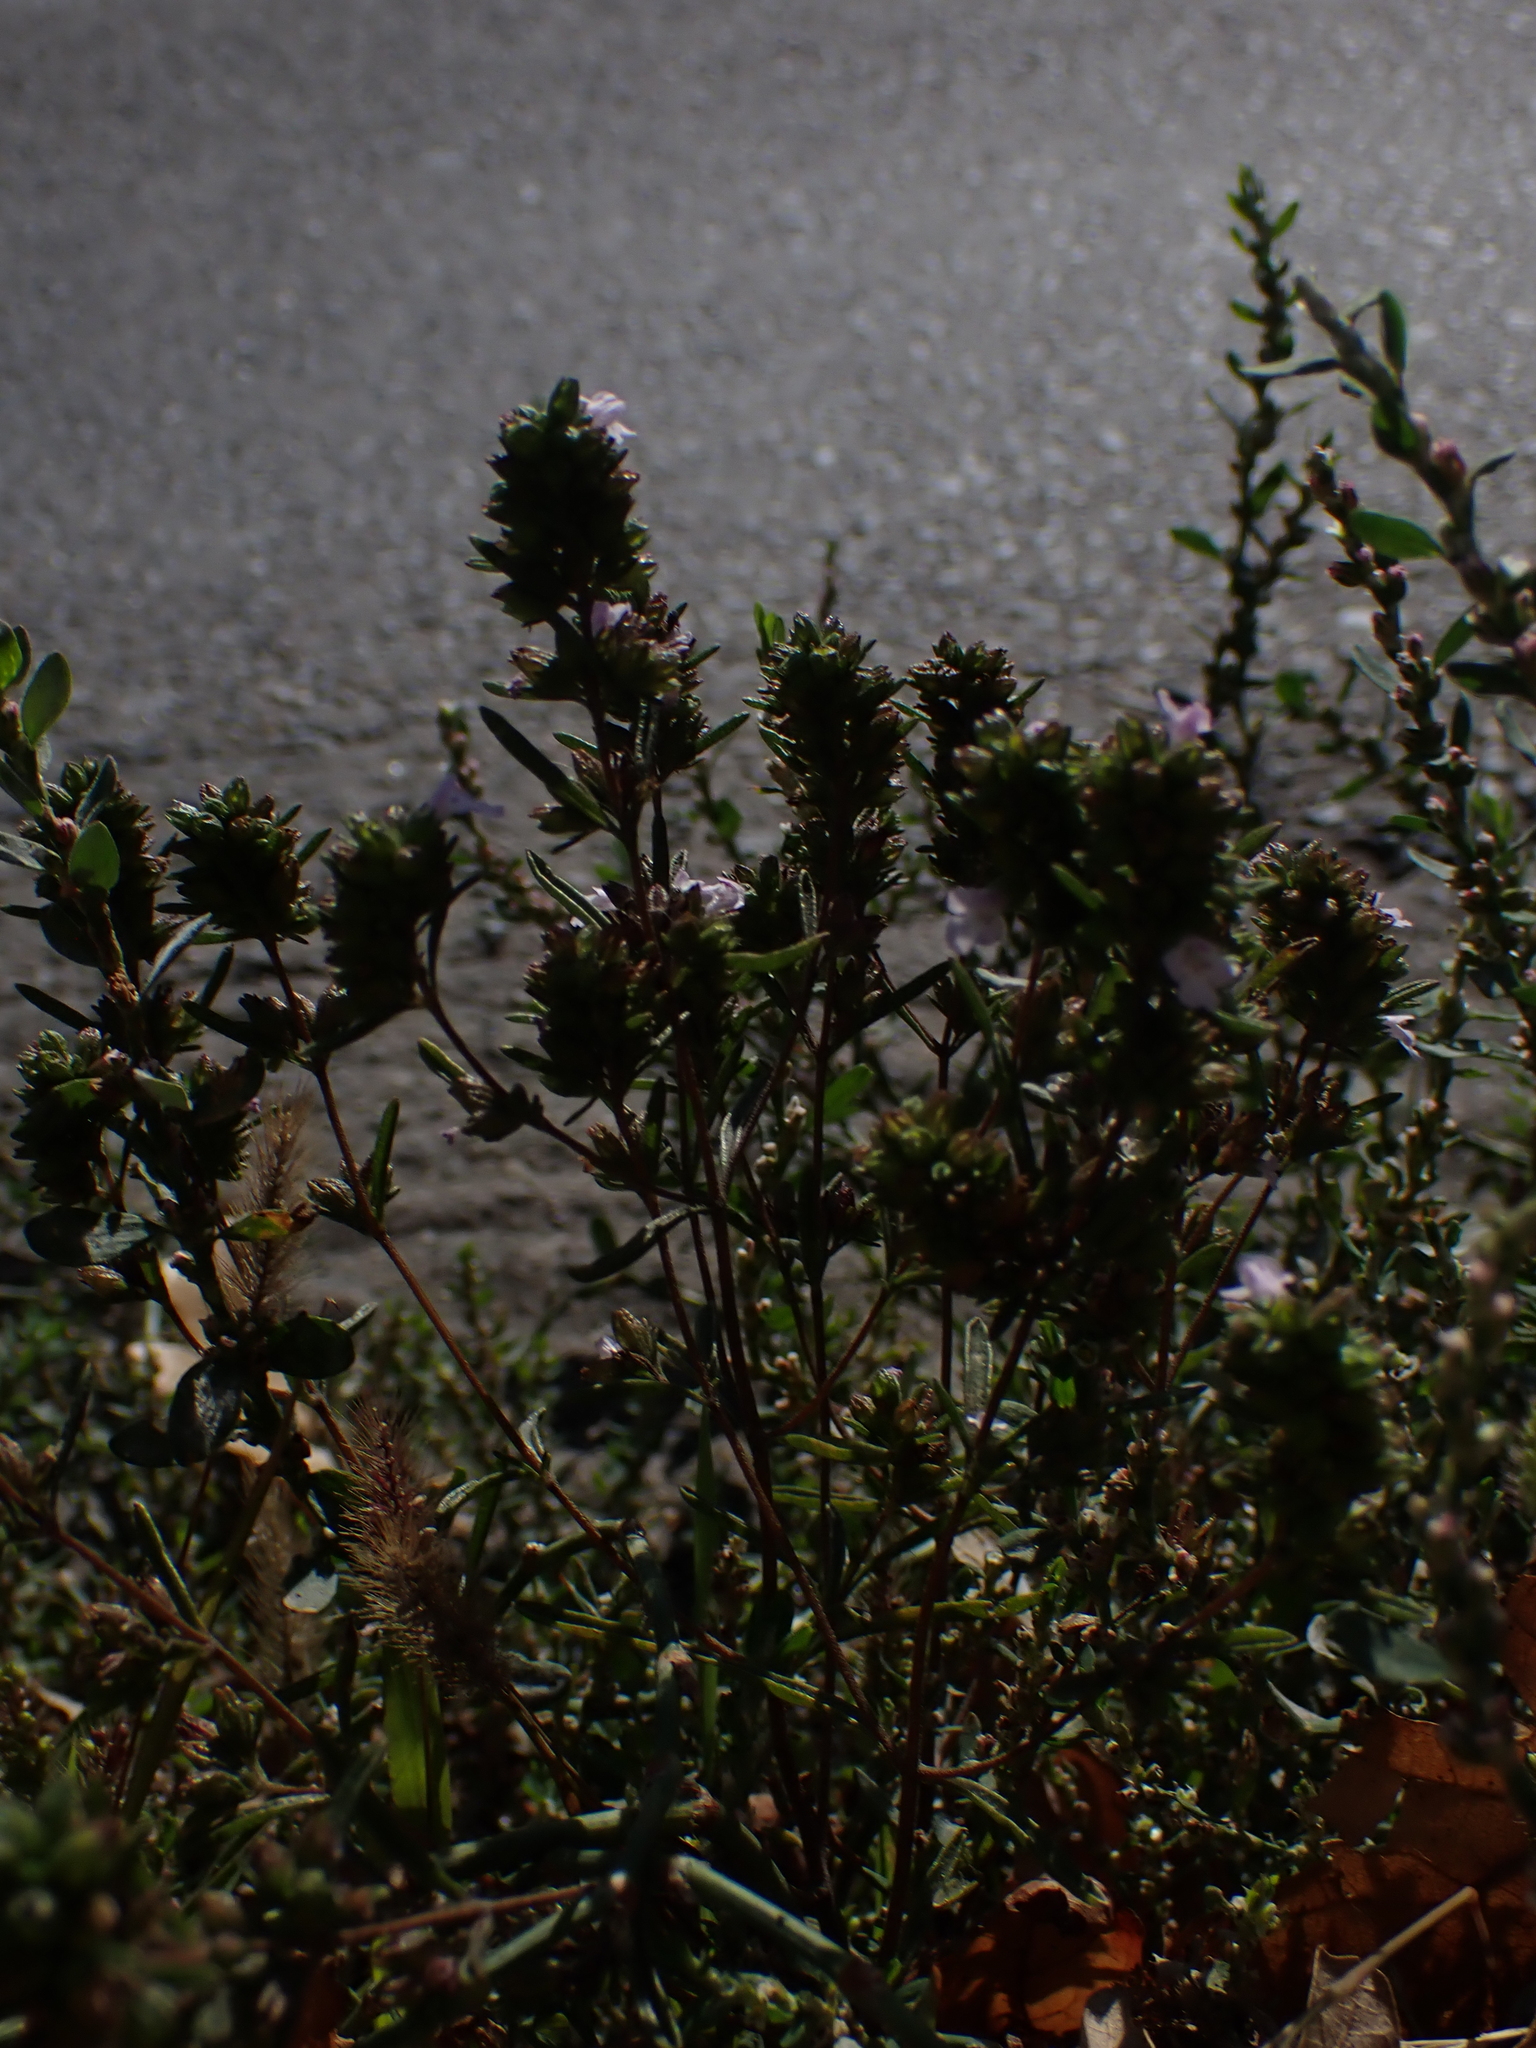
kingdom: Plantae
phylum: Tracheophyta
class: Magnoliopsida
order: Lamiales
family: Lamiaceae
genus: Satureja
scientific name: Satureja hortensis
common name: Summer savory
